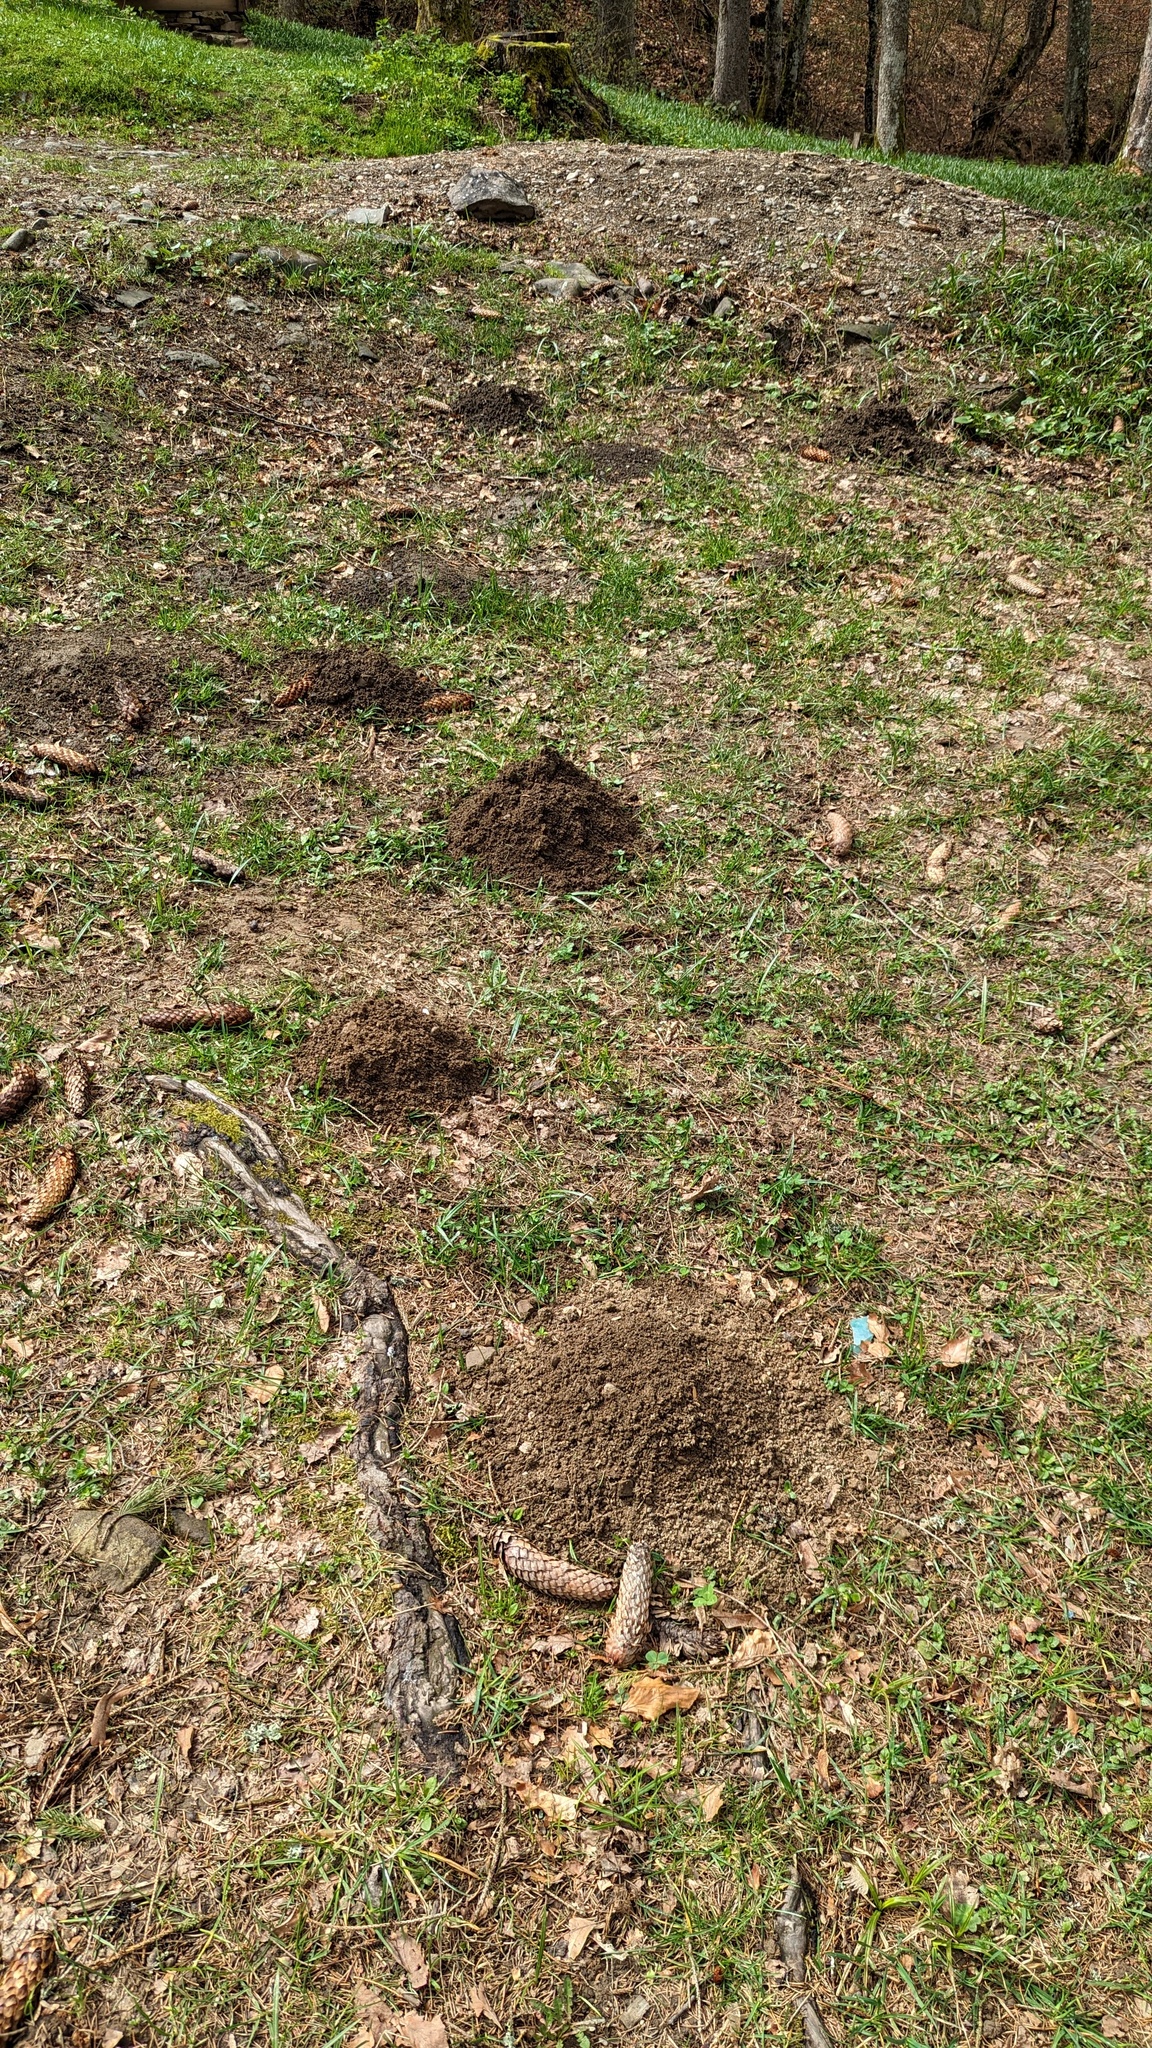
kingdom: Animalia
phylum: Chordata
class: Mammalia
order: Soricomorpha
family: Talpidae
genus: Talpa
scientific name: Talpa europaea
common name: European mole
